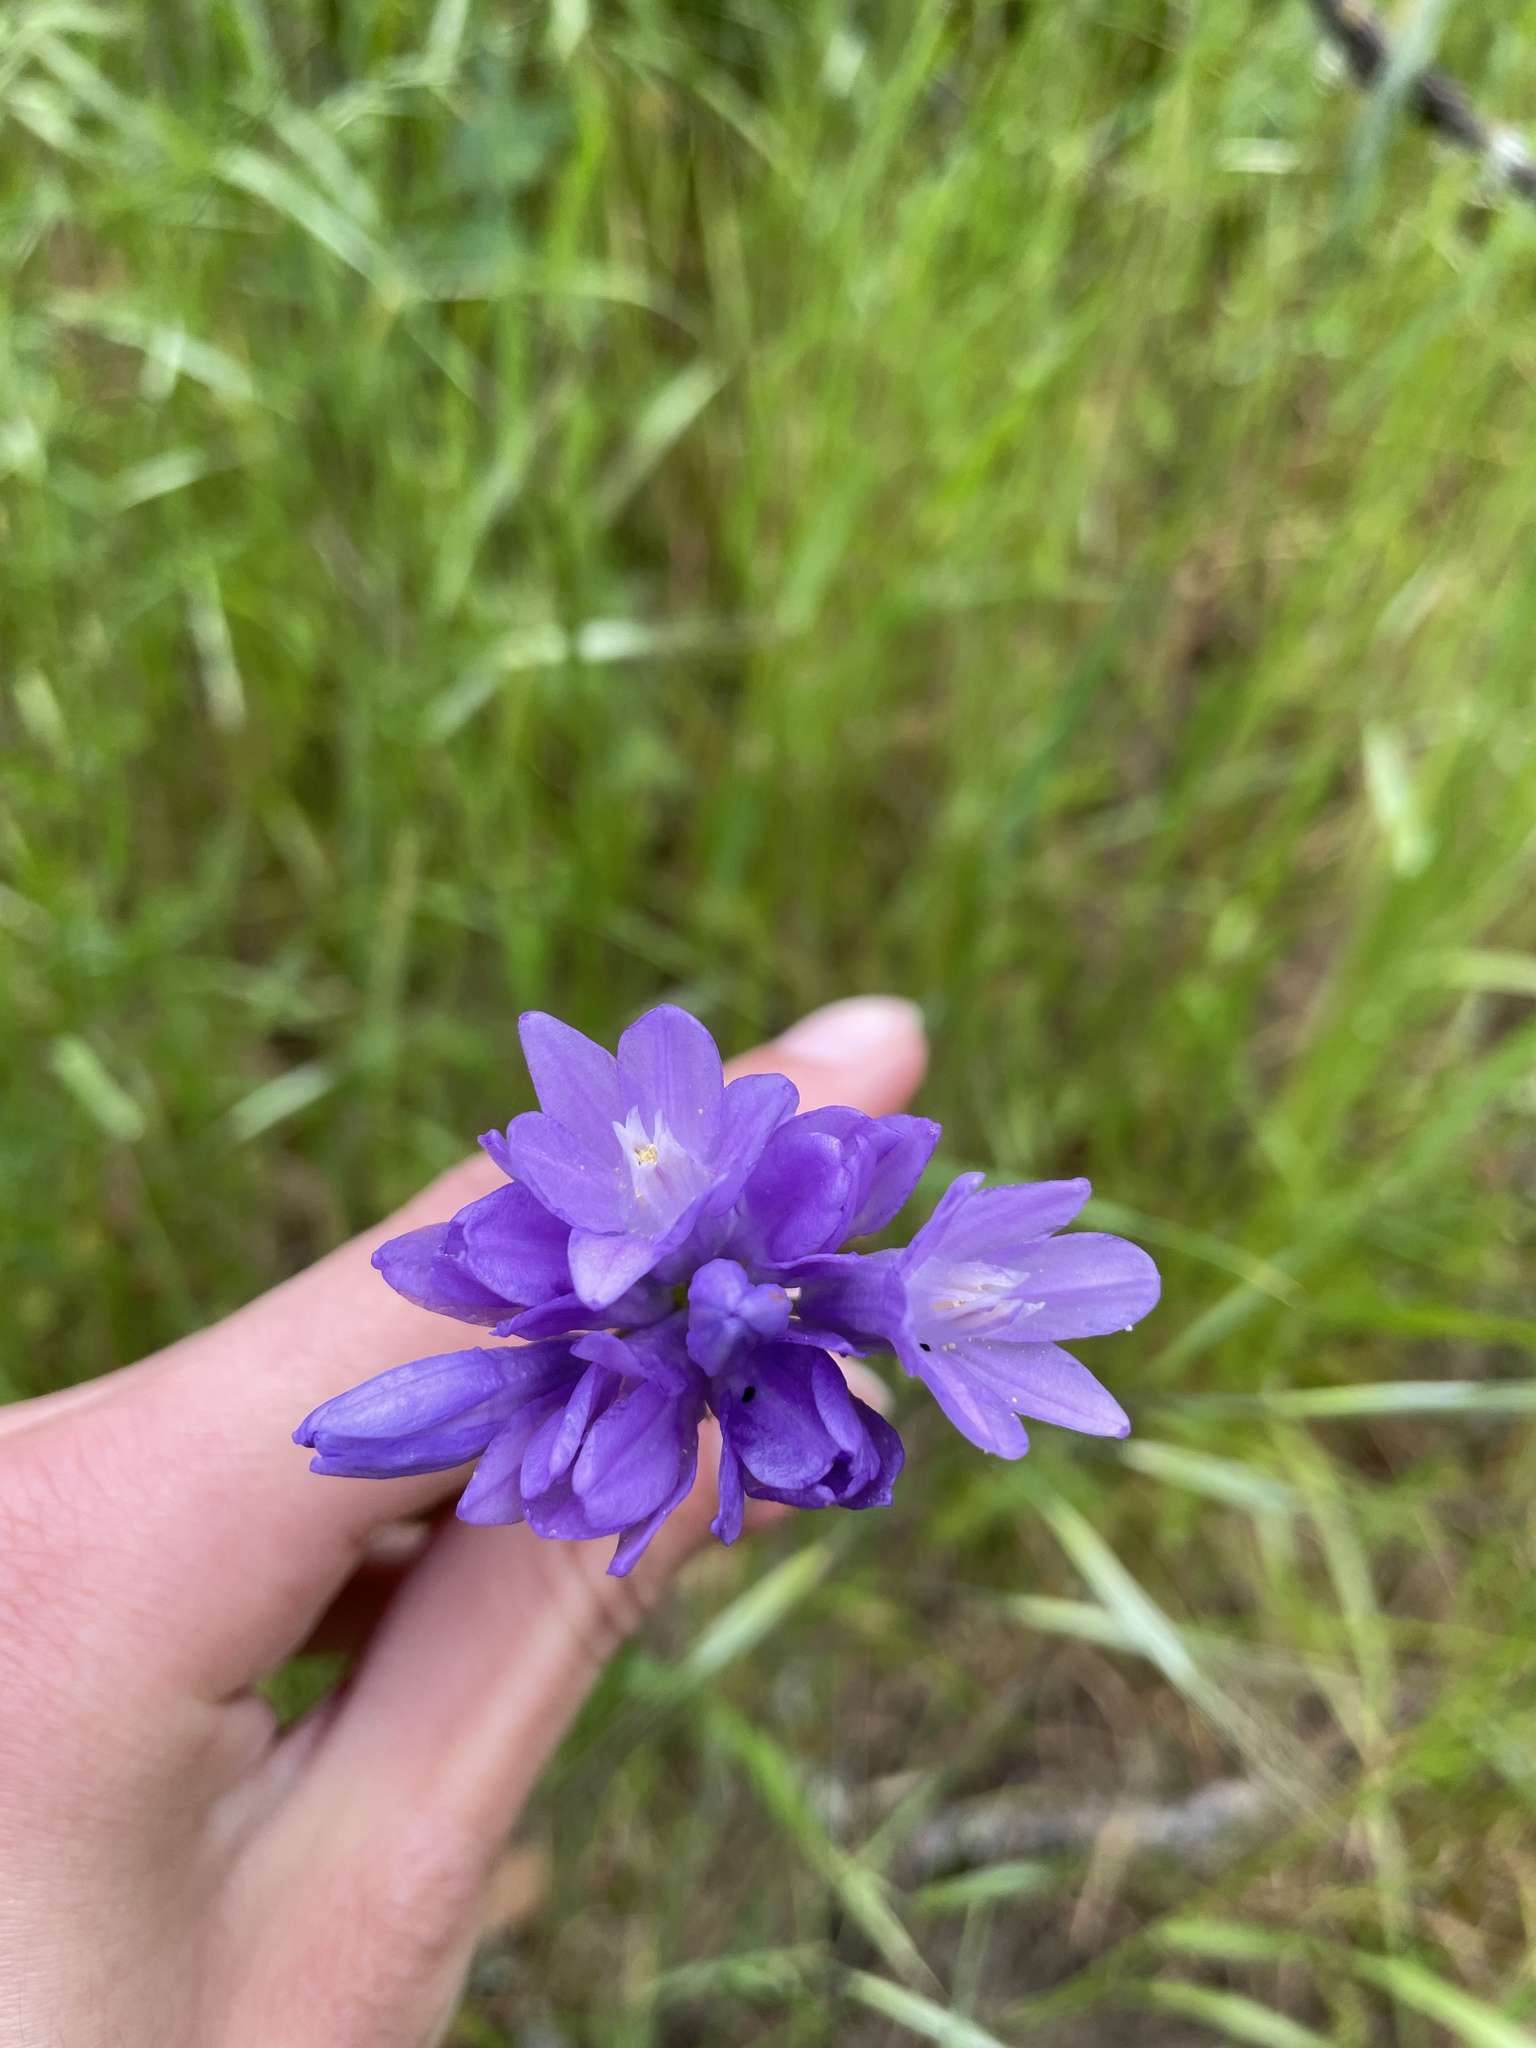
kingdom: Plantae
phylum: Tracheophyta
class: Liliopsida
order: Asparagales
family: Asparagaceae
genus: Dipterostemon
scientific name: Dipterostemon capitatus
